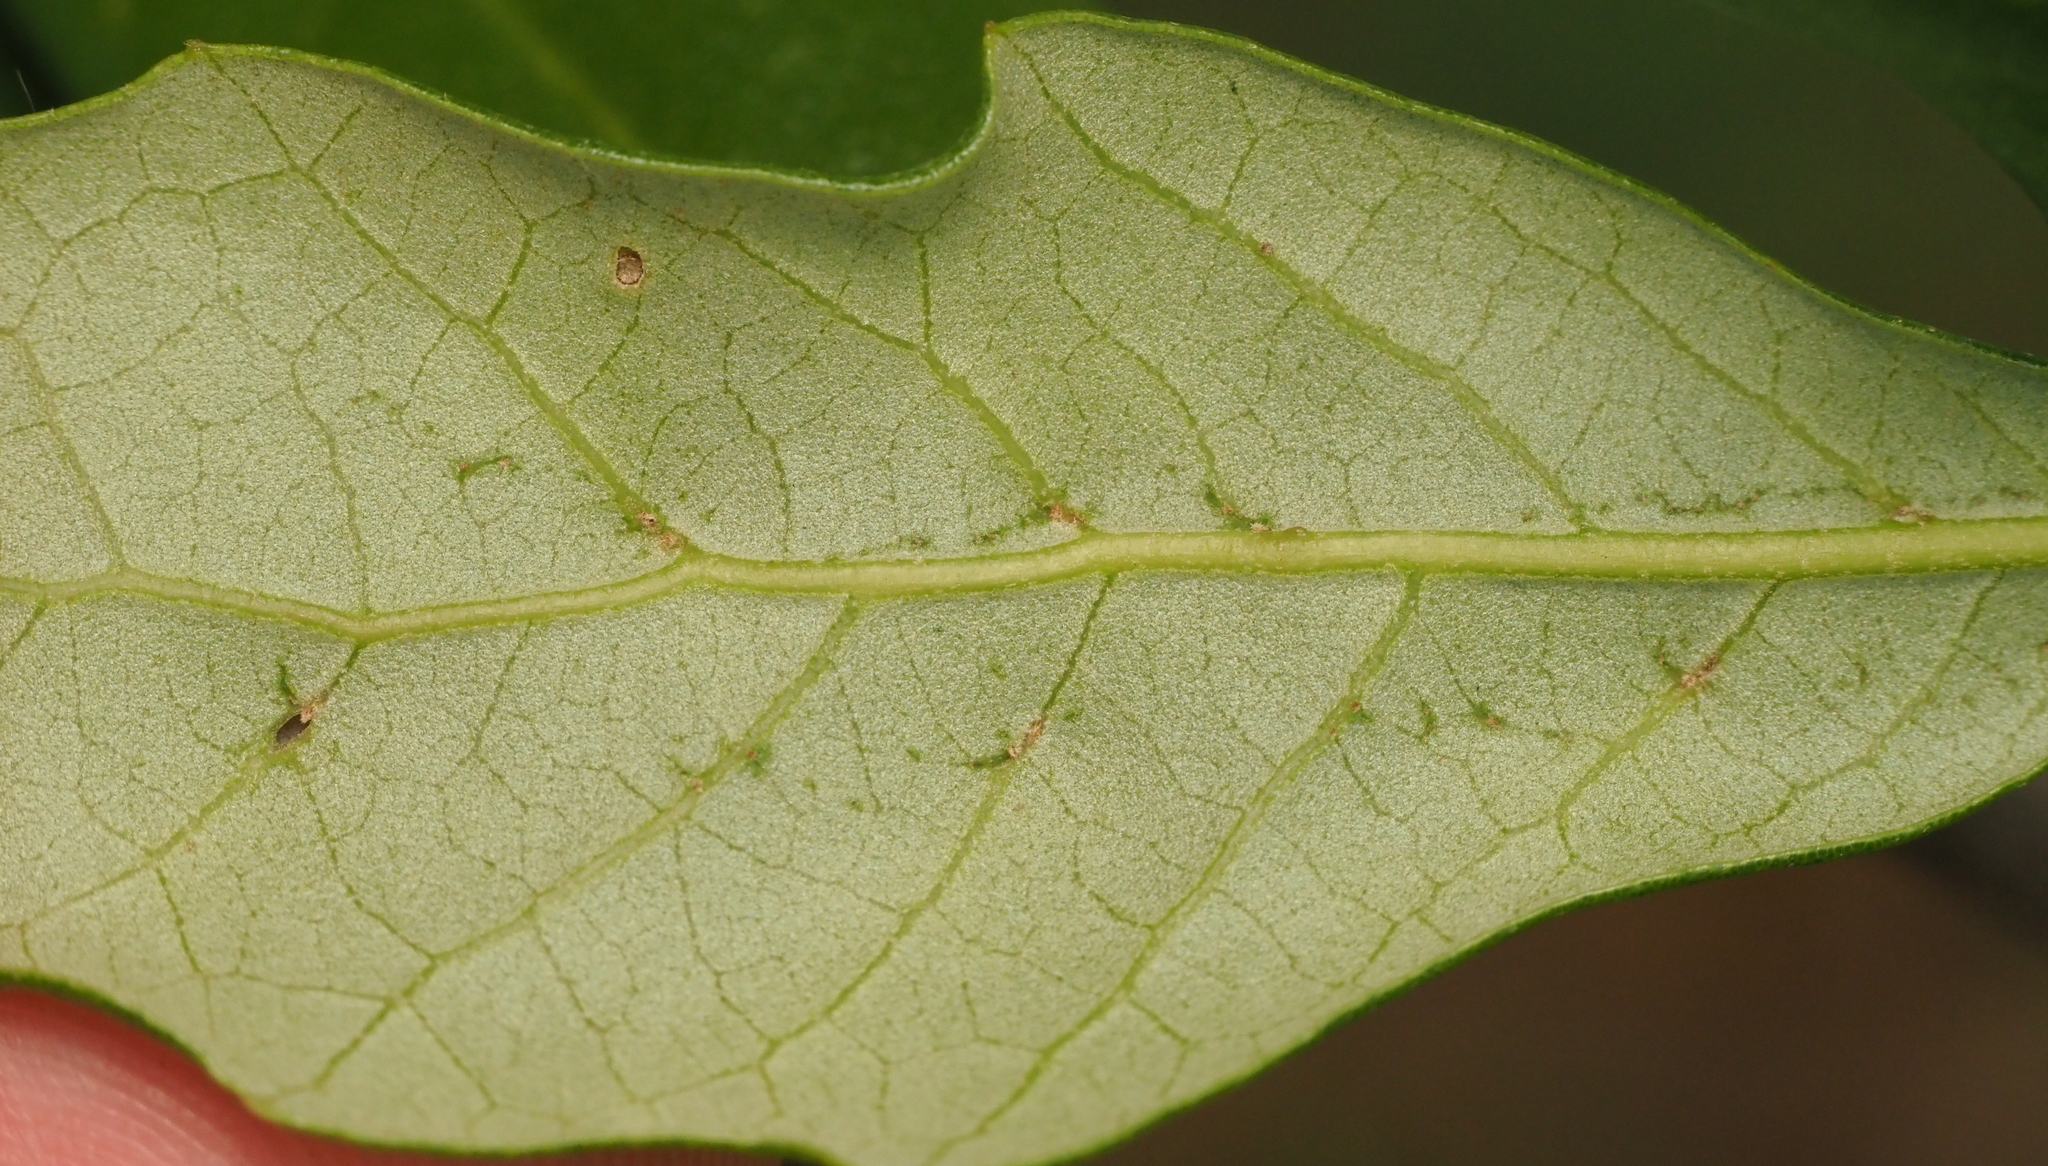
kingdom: Animalia
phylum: Arthropoda
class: Insecta
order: Hymenoptera
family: Cynipidae
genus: Belonocnema
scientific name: Belonocnema kinseyi
